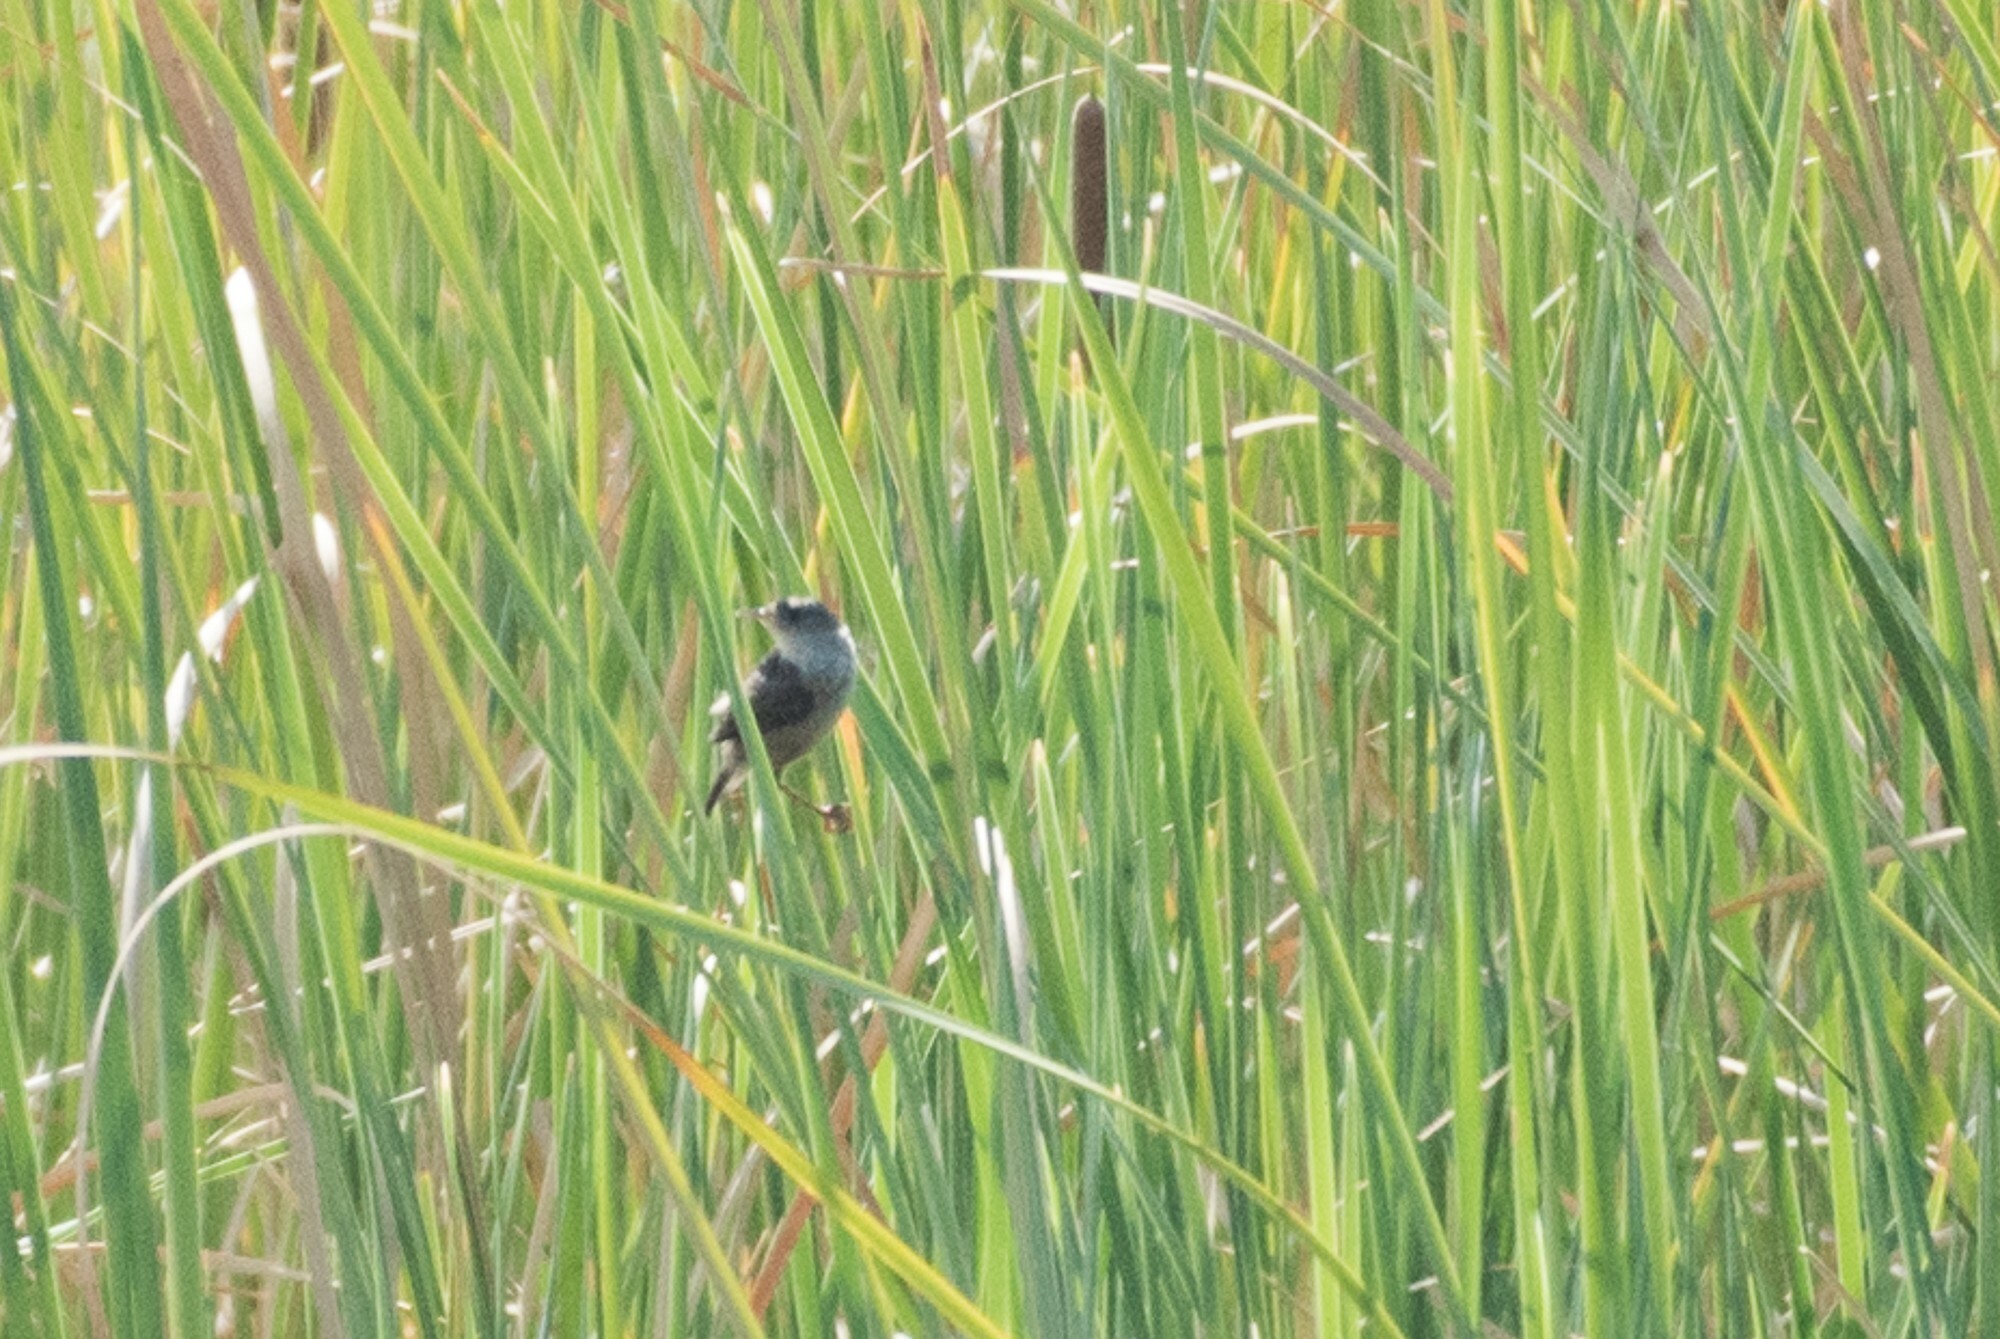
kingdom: Animalia
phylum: Chordata
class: Aves
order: Passeriformes
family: Troglodytidae
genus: Cistothorus
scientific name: Cistothorus palustris
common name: Marsh wren
